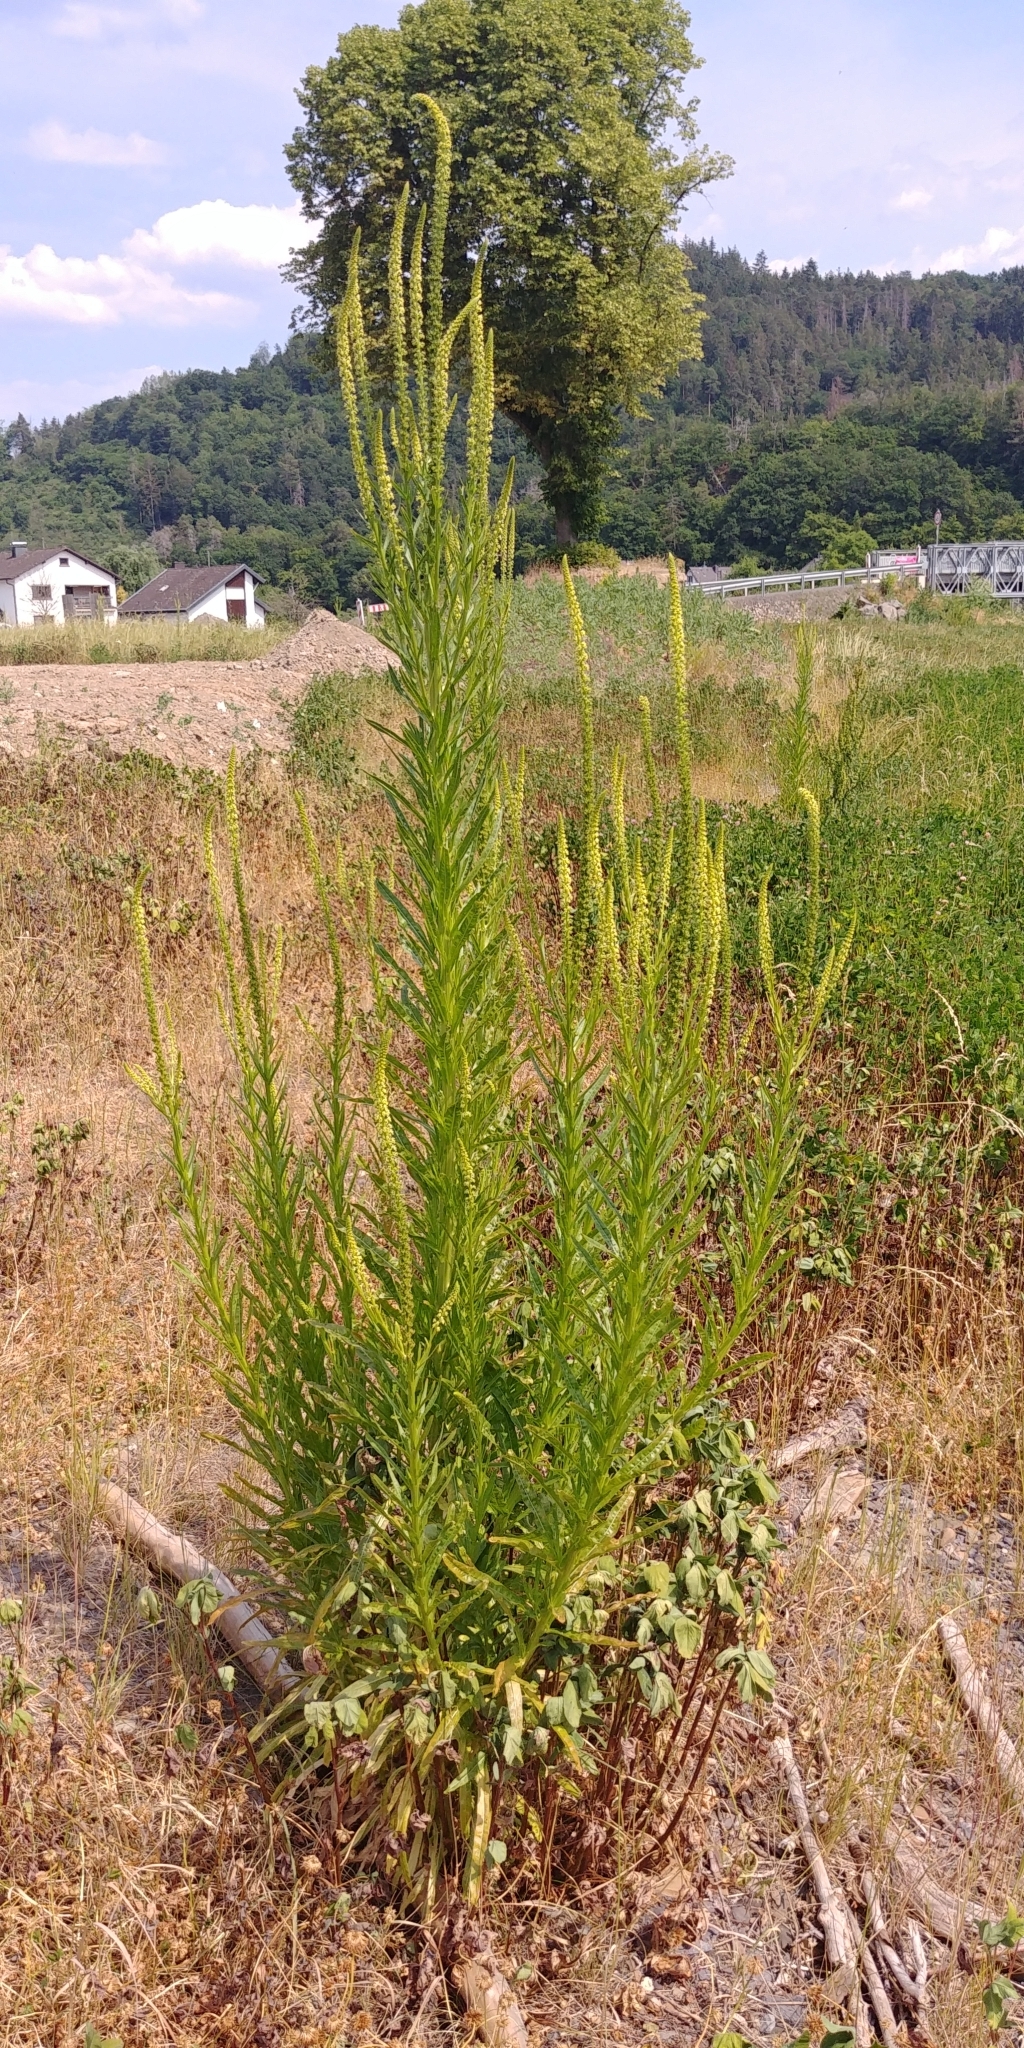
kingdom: Plantae
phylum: Tracheophyta
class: Magnoliopsida
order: Brassicales
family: Resedaceae
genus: Reseda
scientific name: Reseda luteola
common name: Weld
